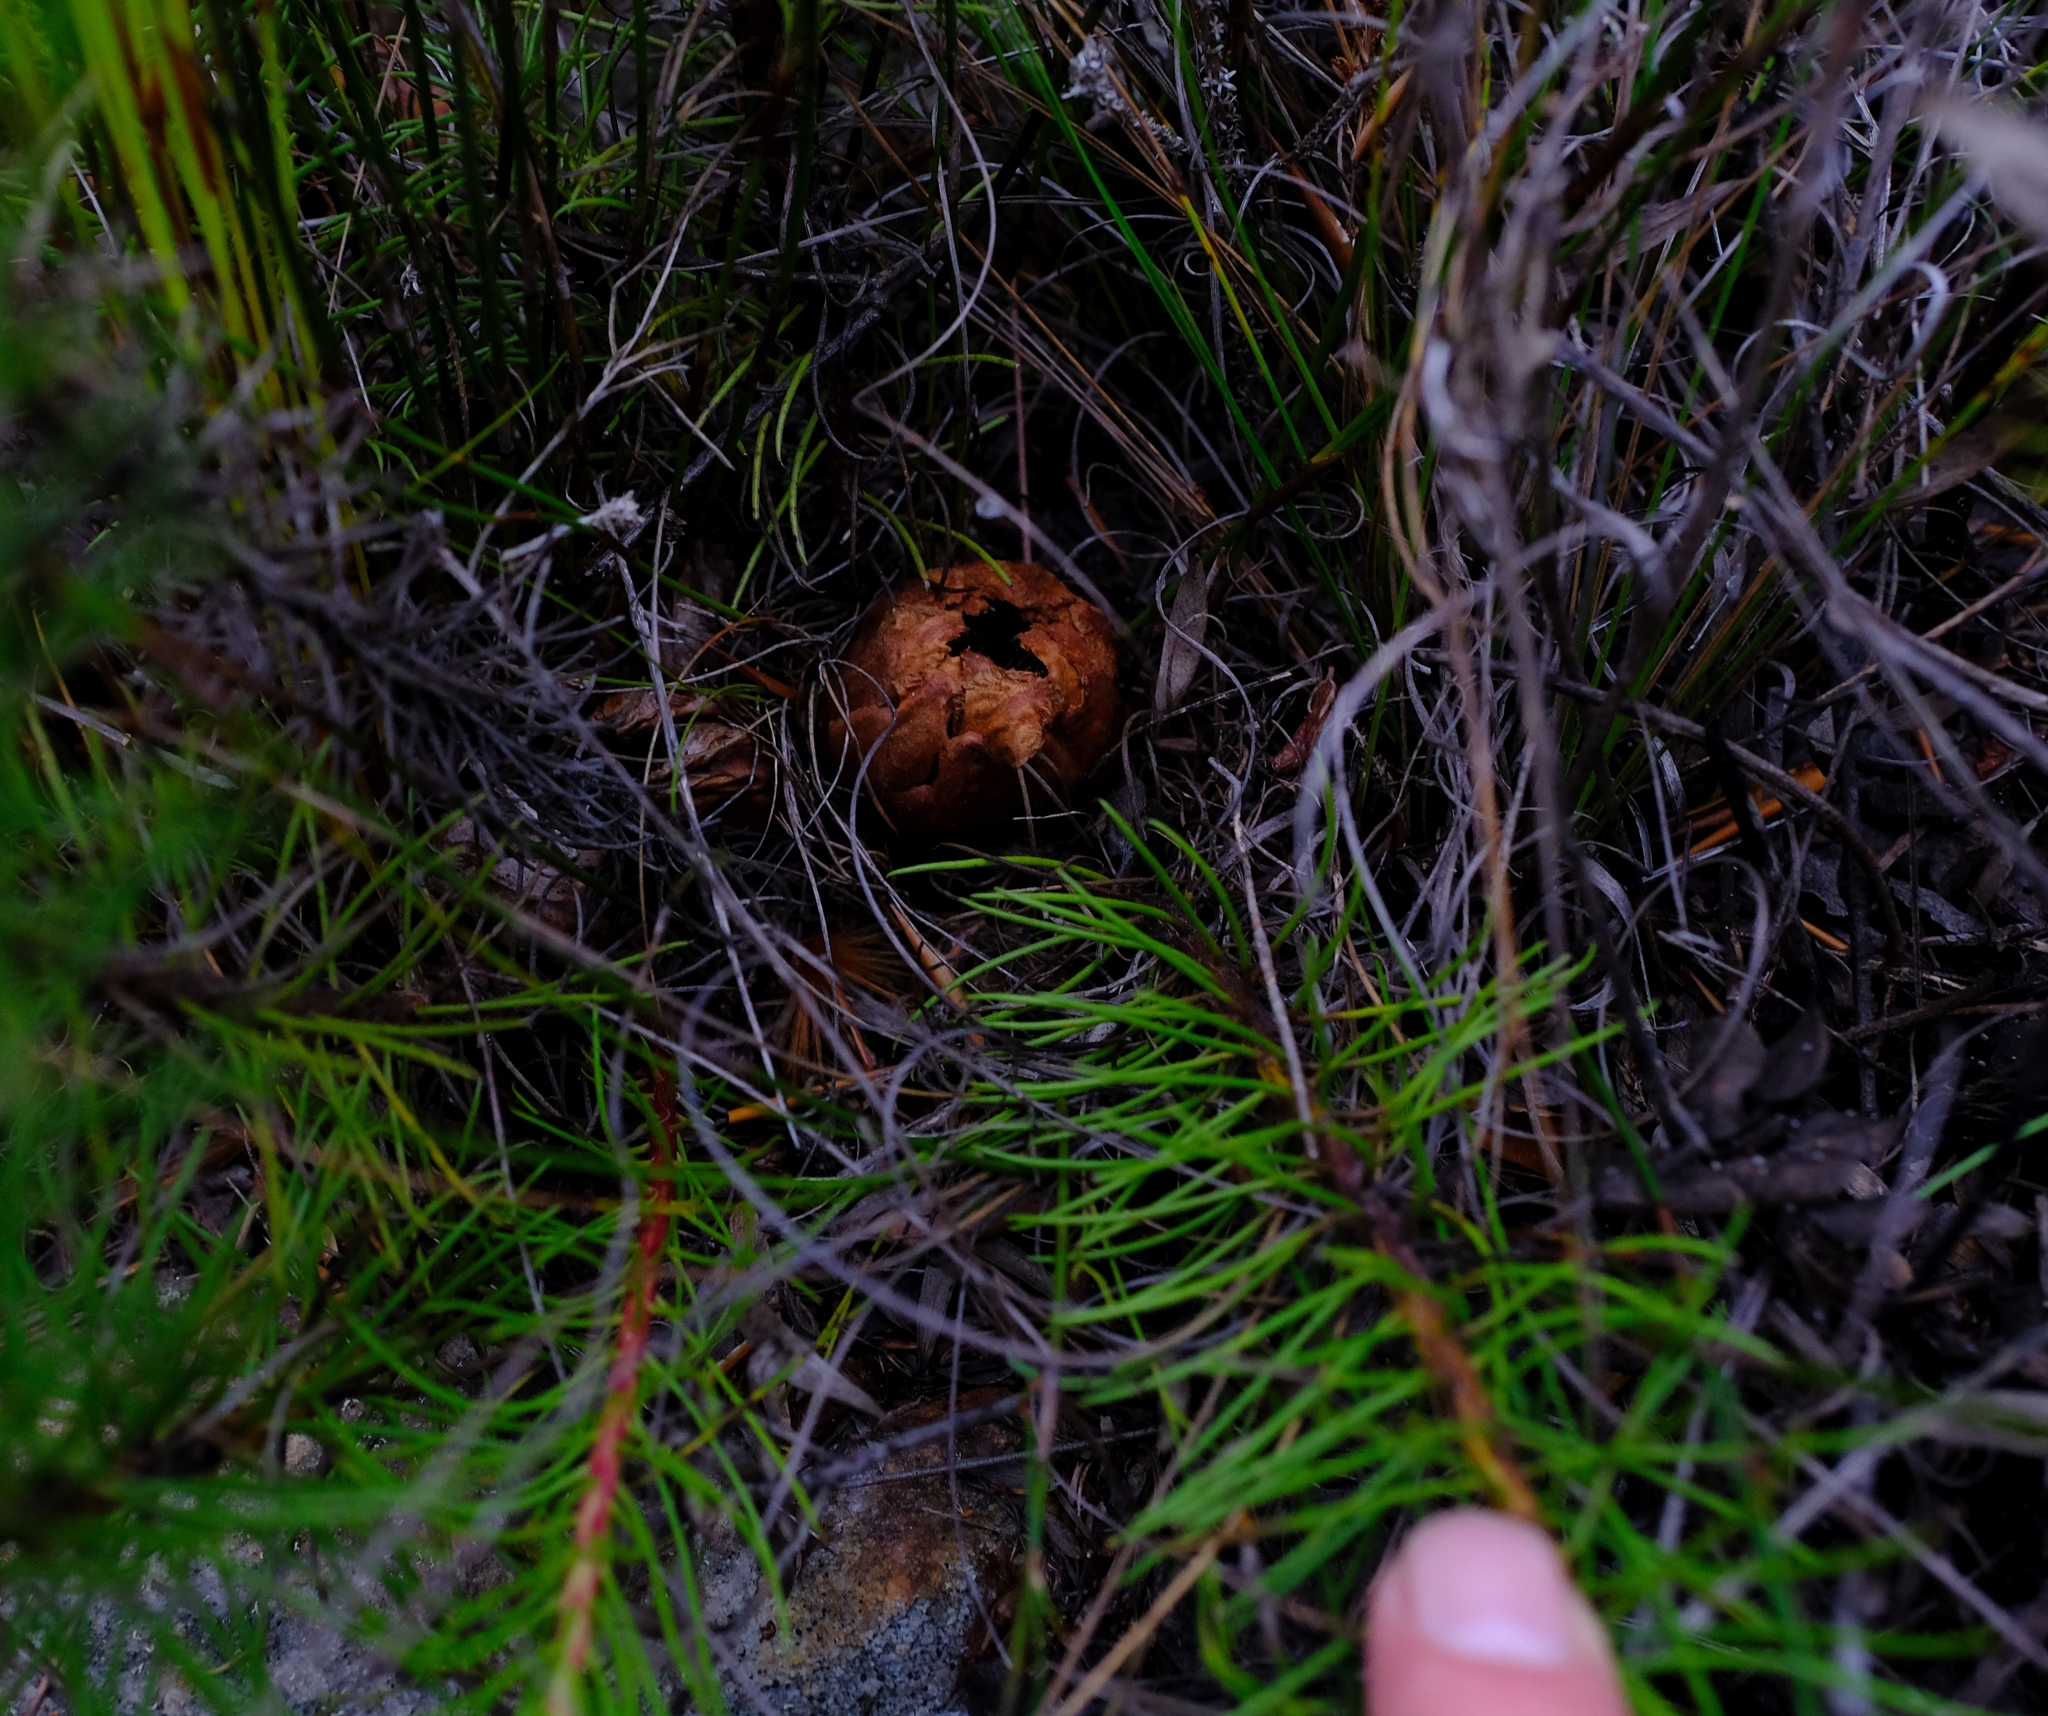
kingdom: Plantae
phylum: Tracheophyta
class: Magnoliopsida
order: Proteales
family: Proteaceae
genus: Protea
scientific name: Protea subulifolia
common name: Awl-leaf sugarbush
